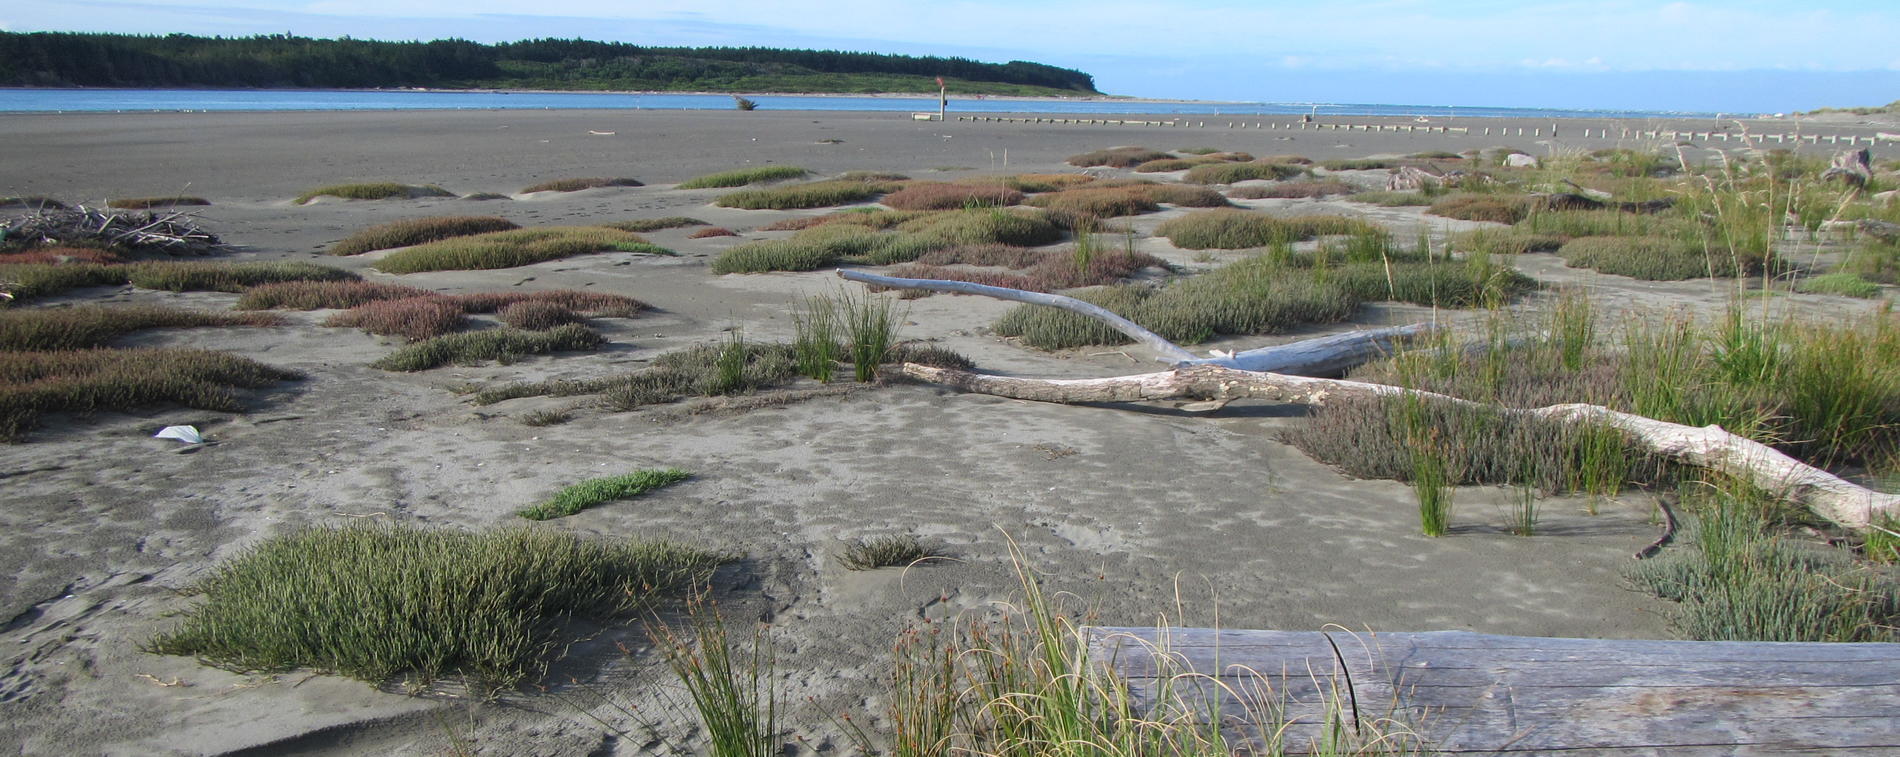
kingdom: Plantae
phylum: Tracheophyta
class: Magnoliopsida
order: Caryophyllales
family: Amaranthaceae
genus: Salicornia
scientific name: Salicornia quinqueflora
